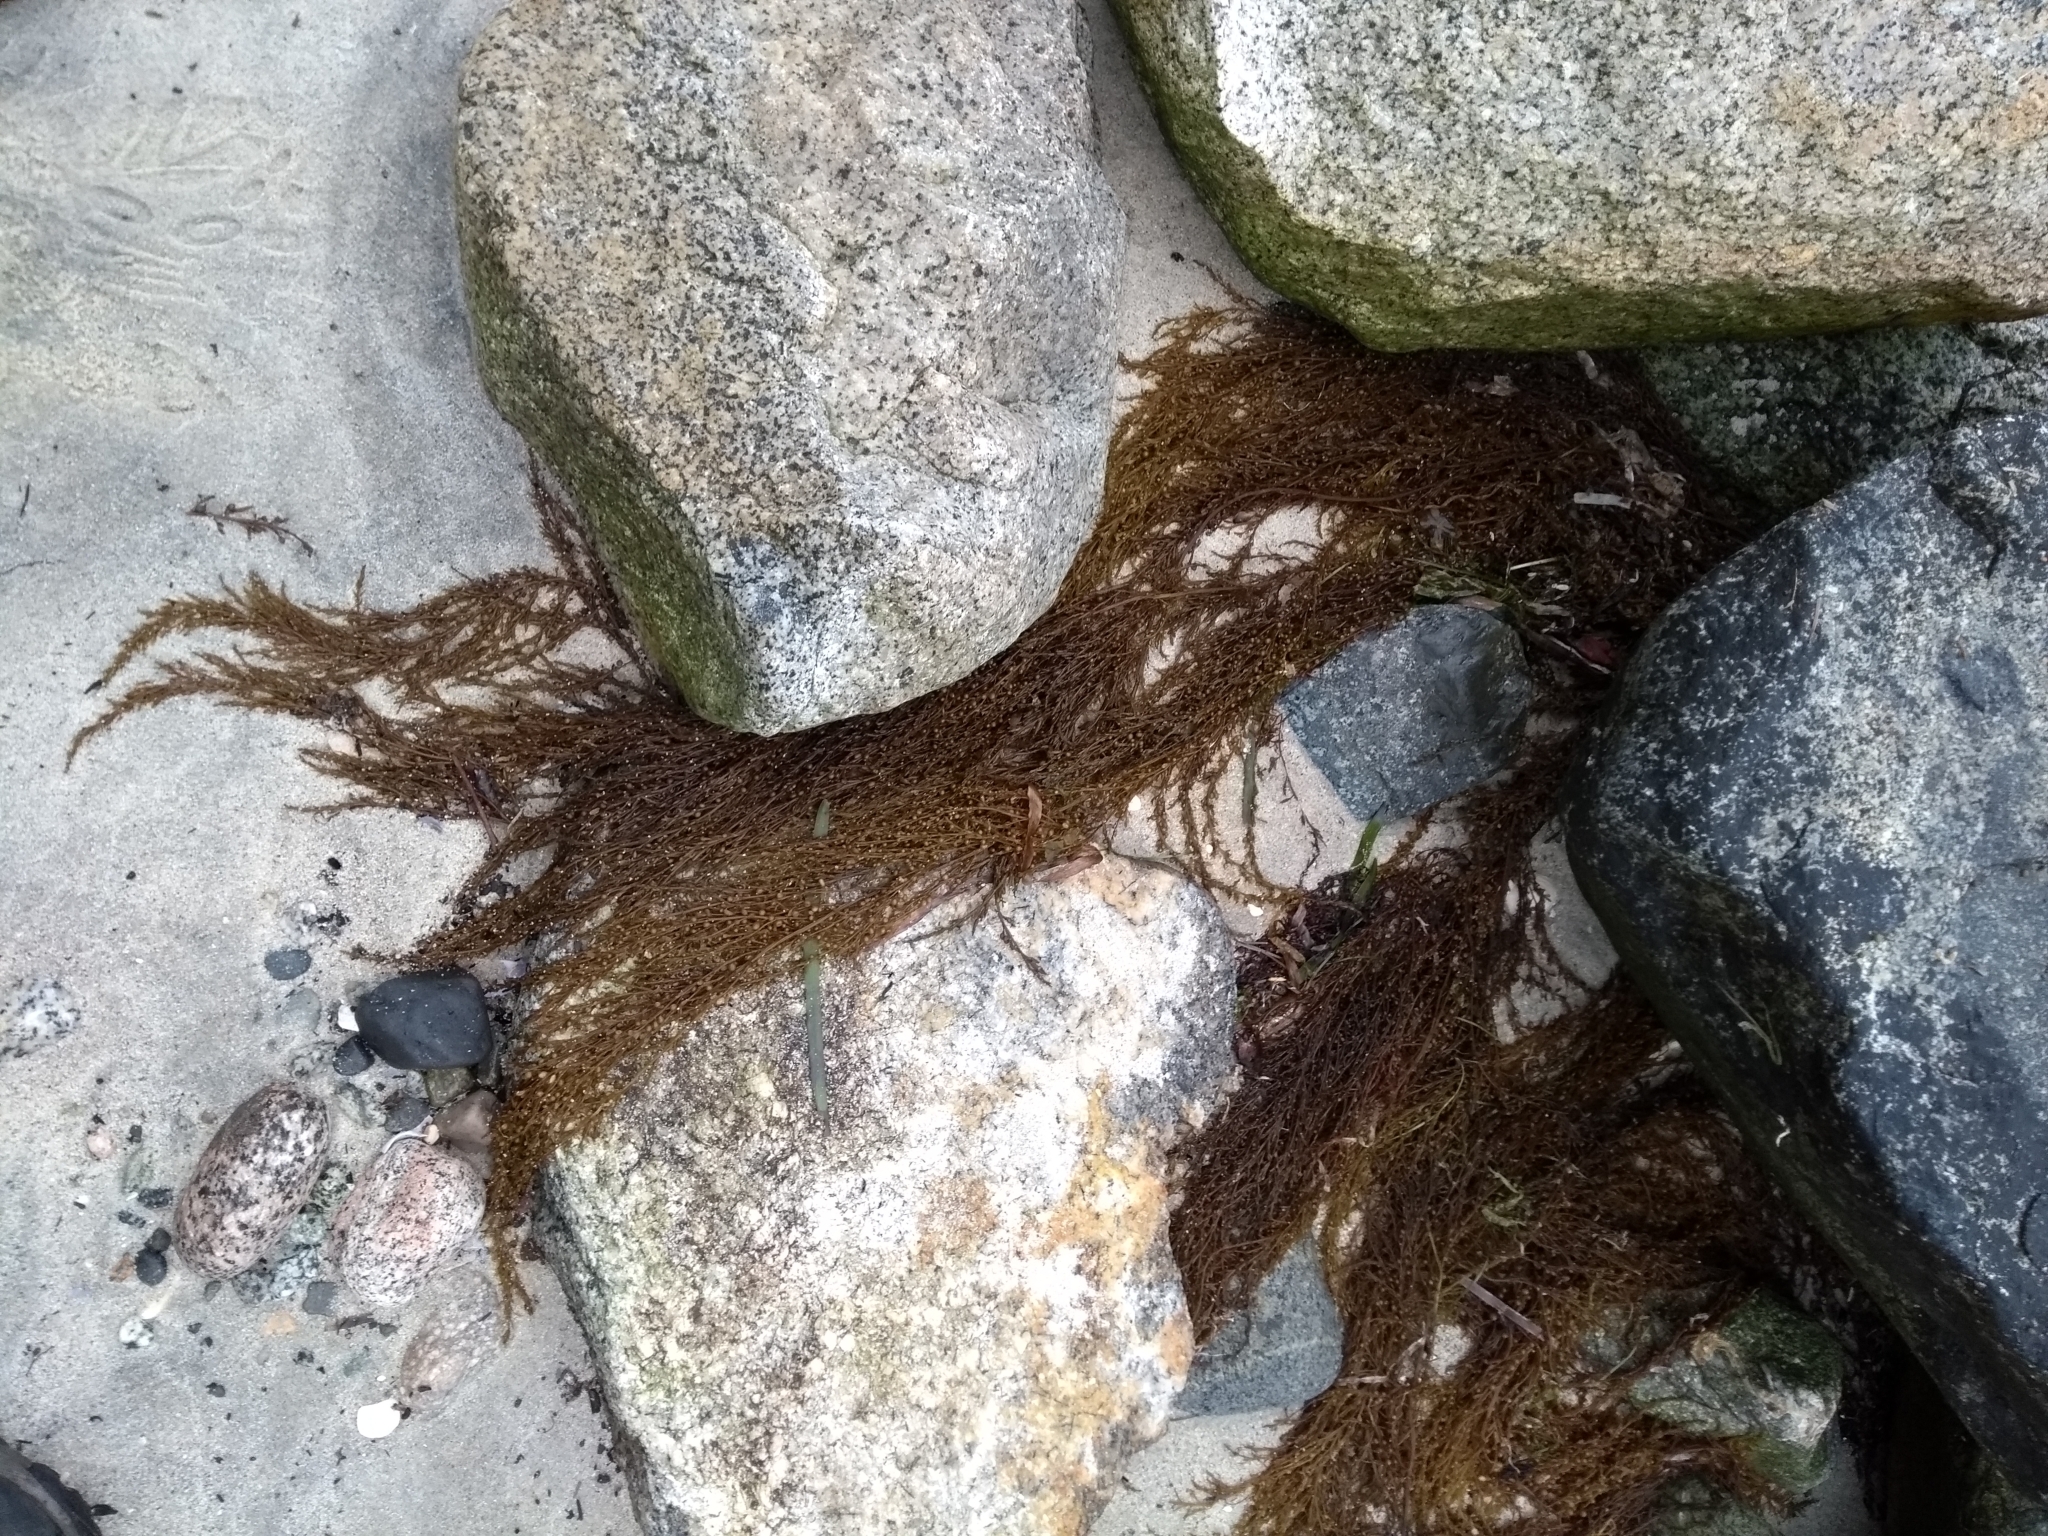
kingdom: Chromista
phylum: Ochrophyta
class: Phaeophyceae
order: Fucales
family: Sargassaceae
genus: Sargassum
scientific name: Sargassum muticum
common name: Japweed
